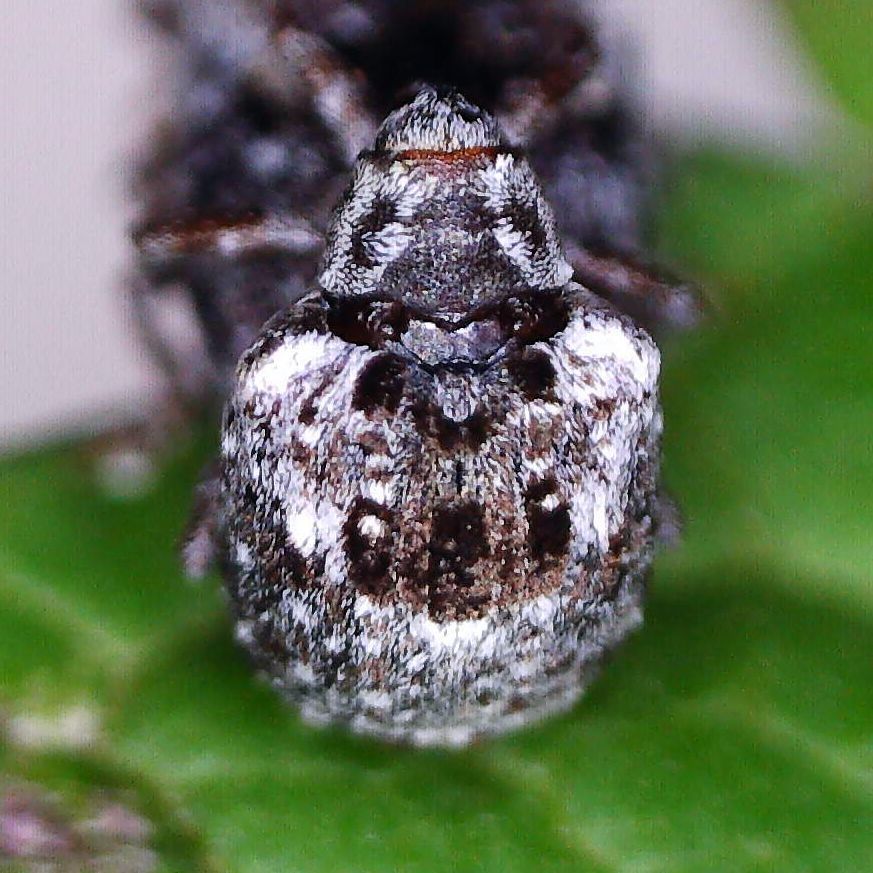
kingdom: Animalia
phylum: Arthropoda
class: Insecta
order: Coleoptera
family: Curculionidae
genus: Cionus
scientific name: Cionus alauda
